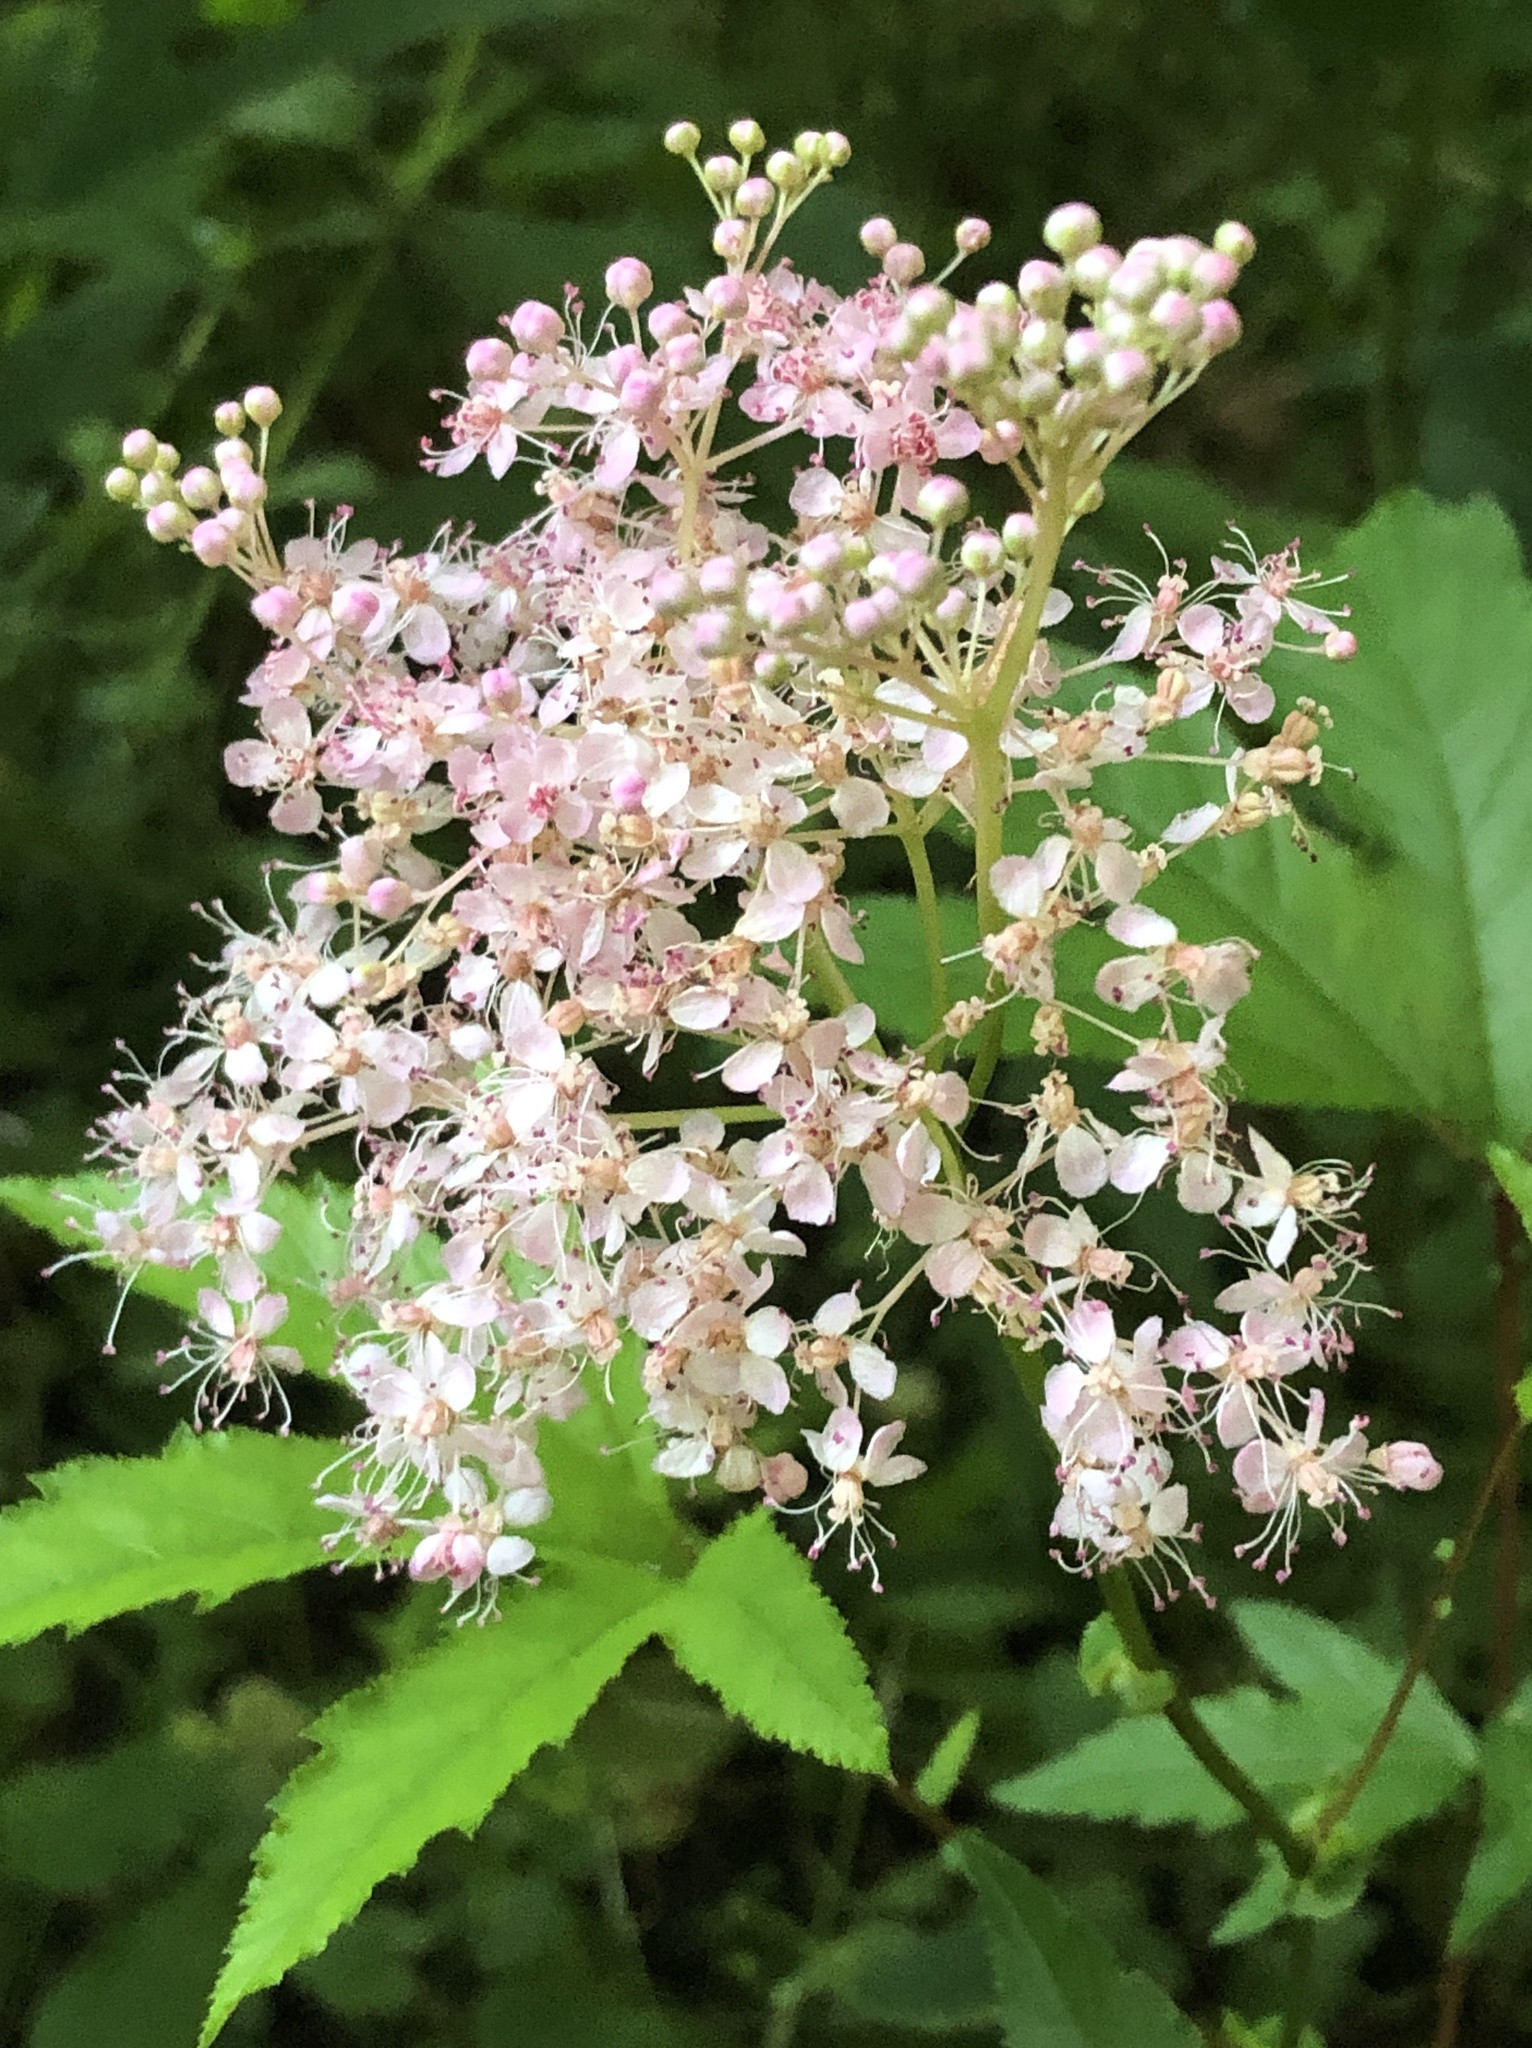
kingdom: Plantae
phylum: Tracheophyta
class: Magnoliopsida
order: Rosales
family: Rosaceae
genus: Filipendula
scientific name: Filipendula rubra
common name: Queen-of-the-prairie
